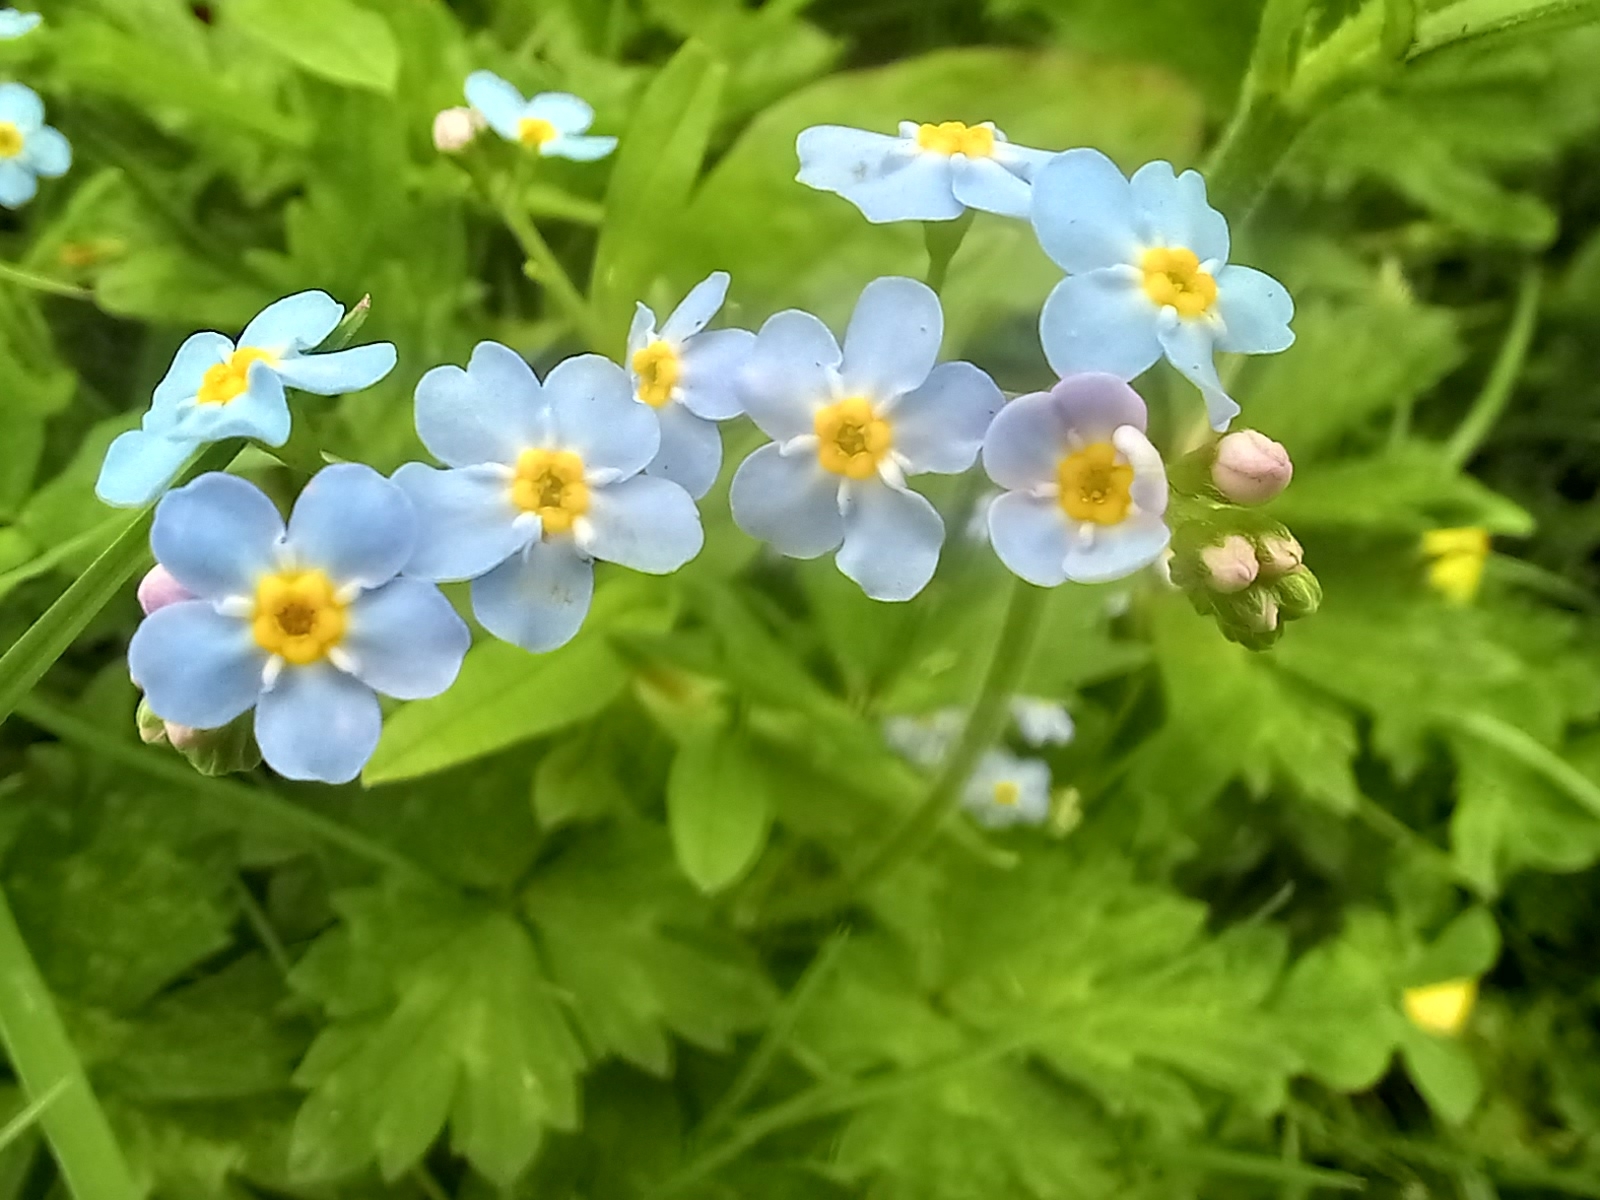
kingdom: Plantae
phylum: Tracheophyta
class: Magnoliopsida
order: Boraginales
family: Boraginaceae
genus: Myosotis
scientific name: Myosotis scorpioides
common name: Water forget-me-not
